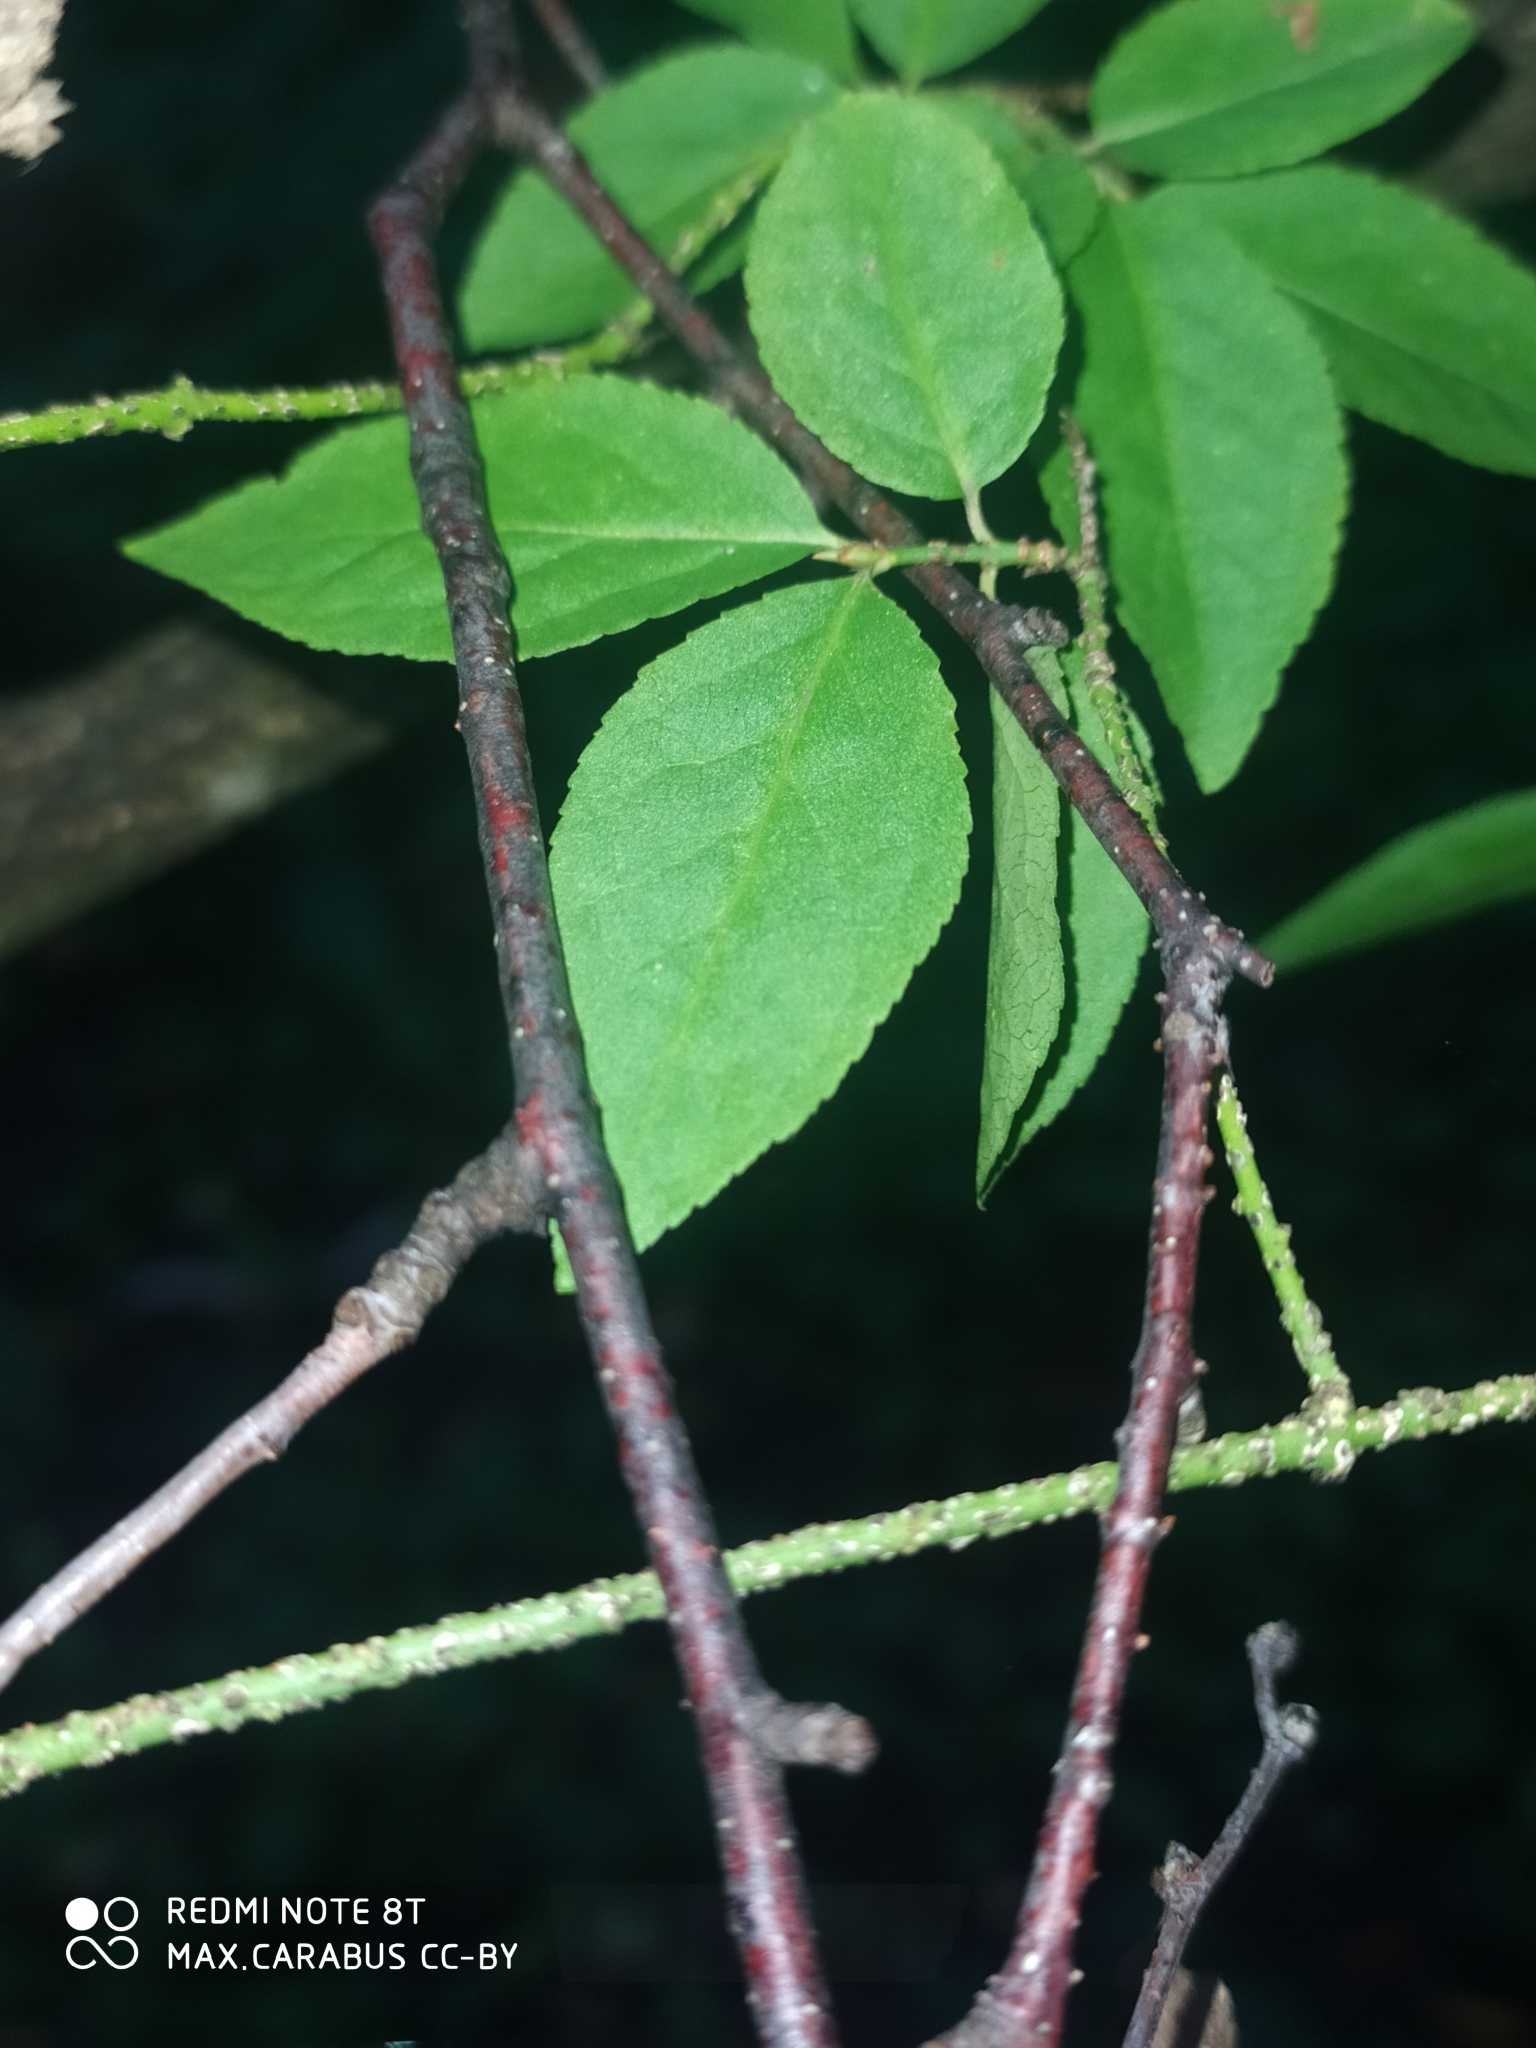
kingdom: Plantae
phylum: Tracheophyta
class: Magnoliopsida
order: Celastrales
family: Celastraceae
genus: Euonymus
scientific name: Euonymus verrucosus
